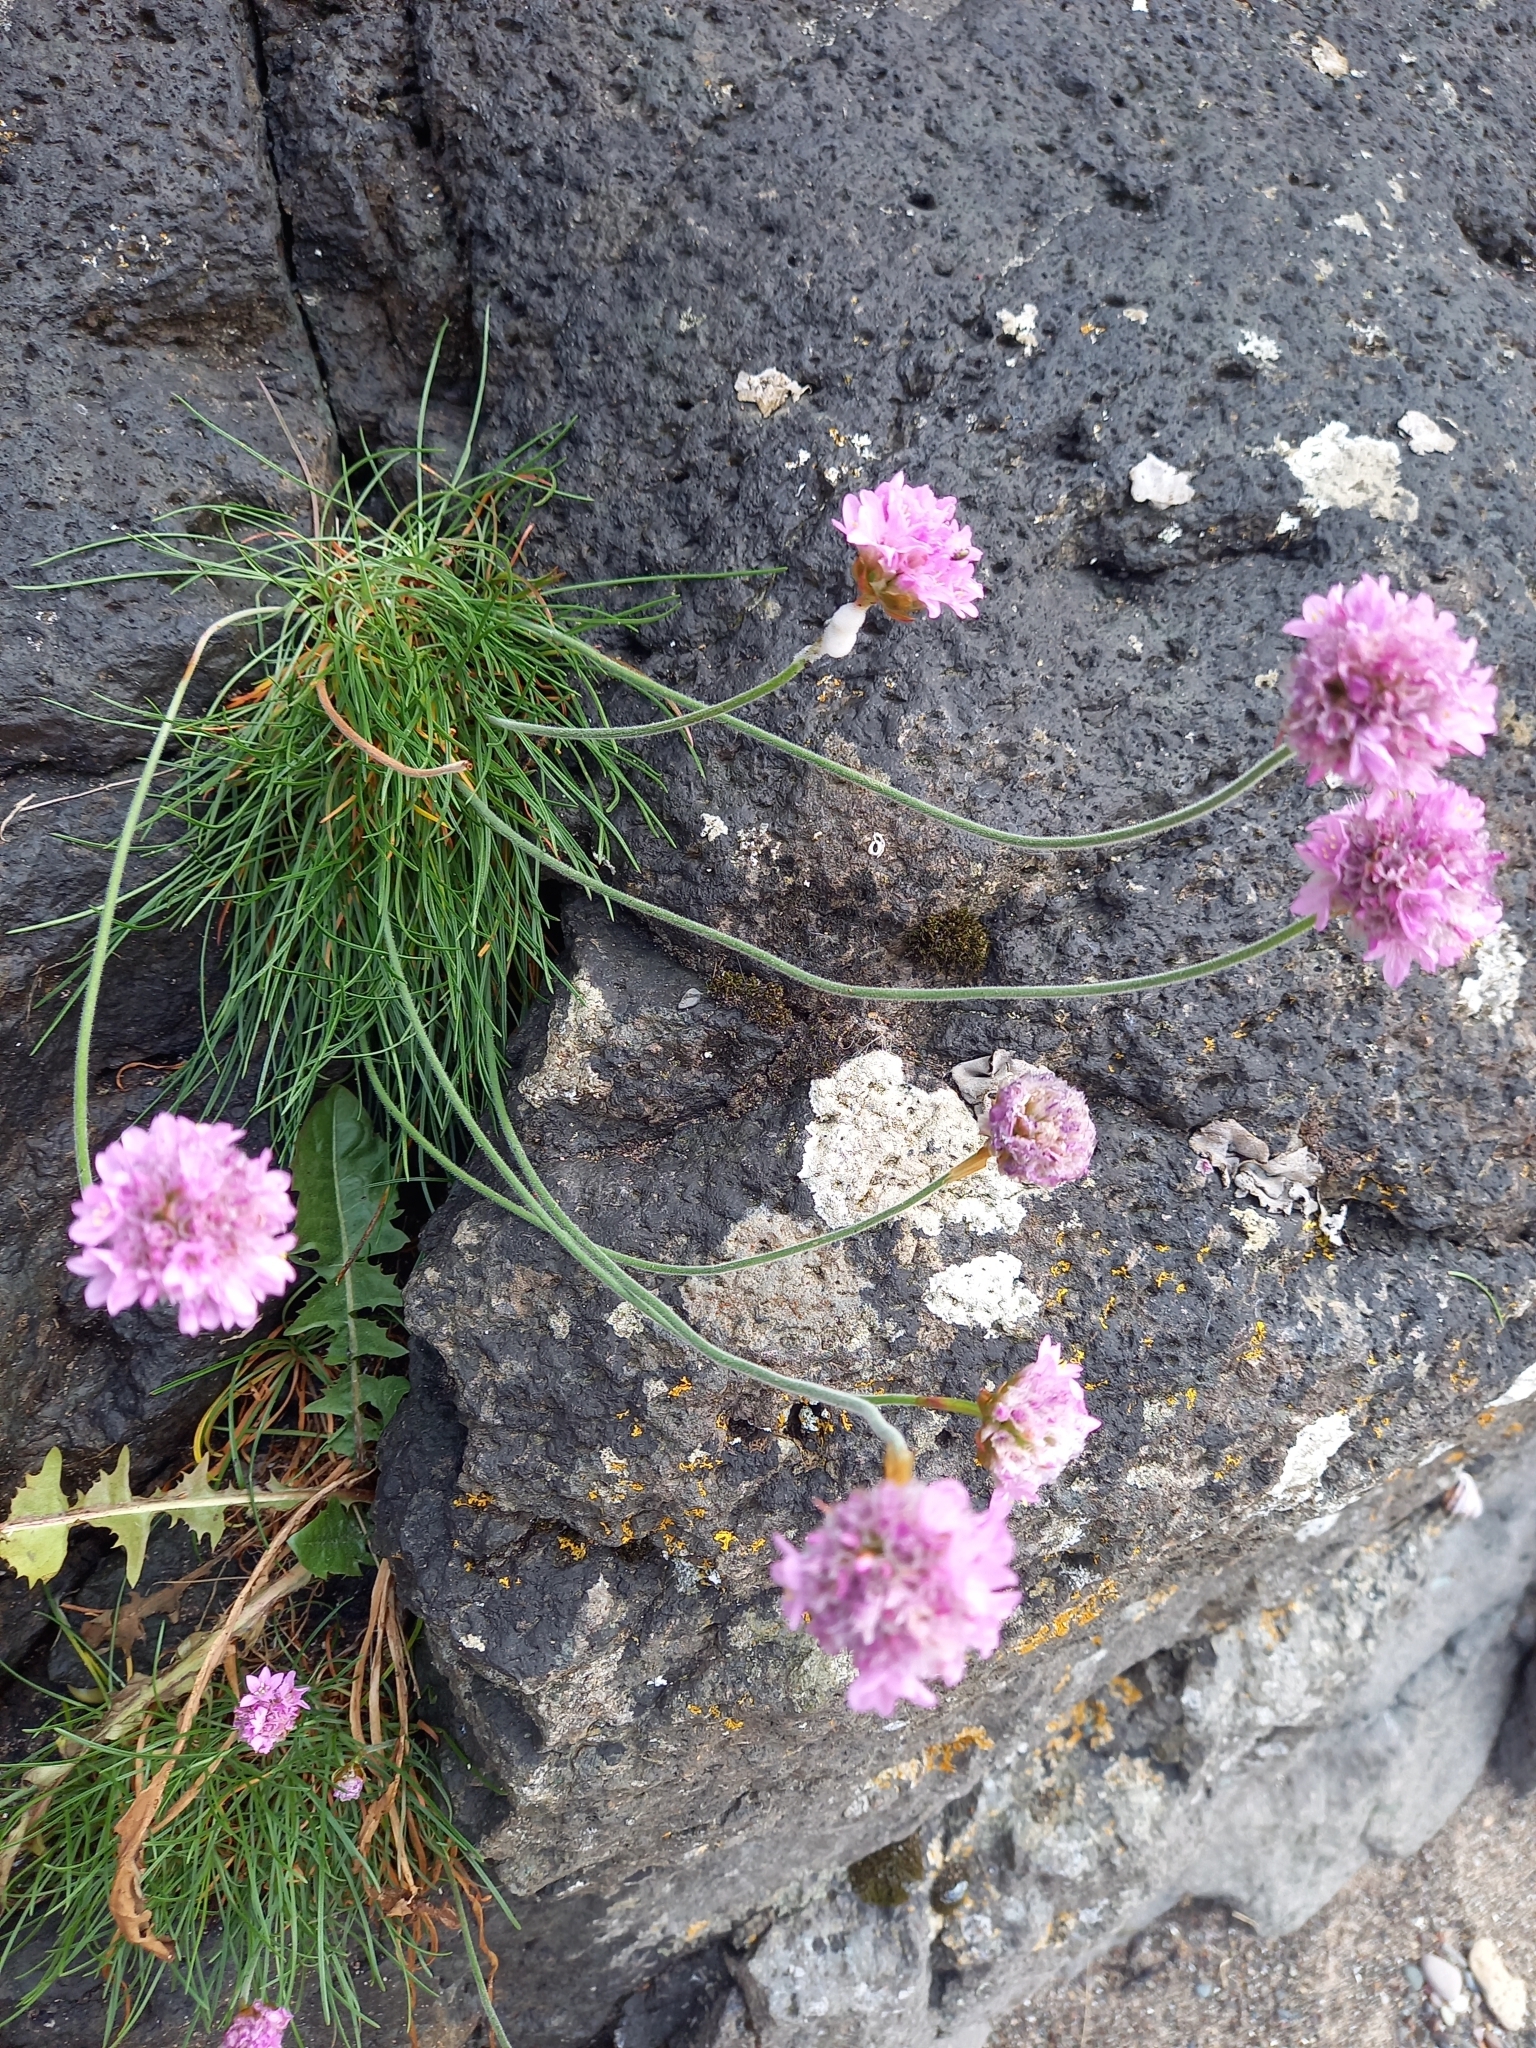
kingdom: Plantae
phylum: Tracheophyta
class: Magnoliopsida
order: Caryophyllales
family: Plumbaginaceae
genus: Armeria
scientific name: Armeria maritima
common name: Thrift
